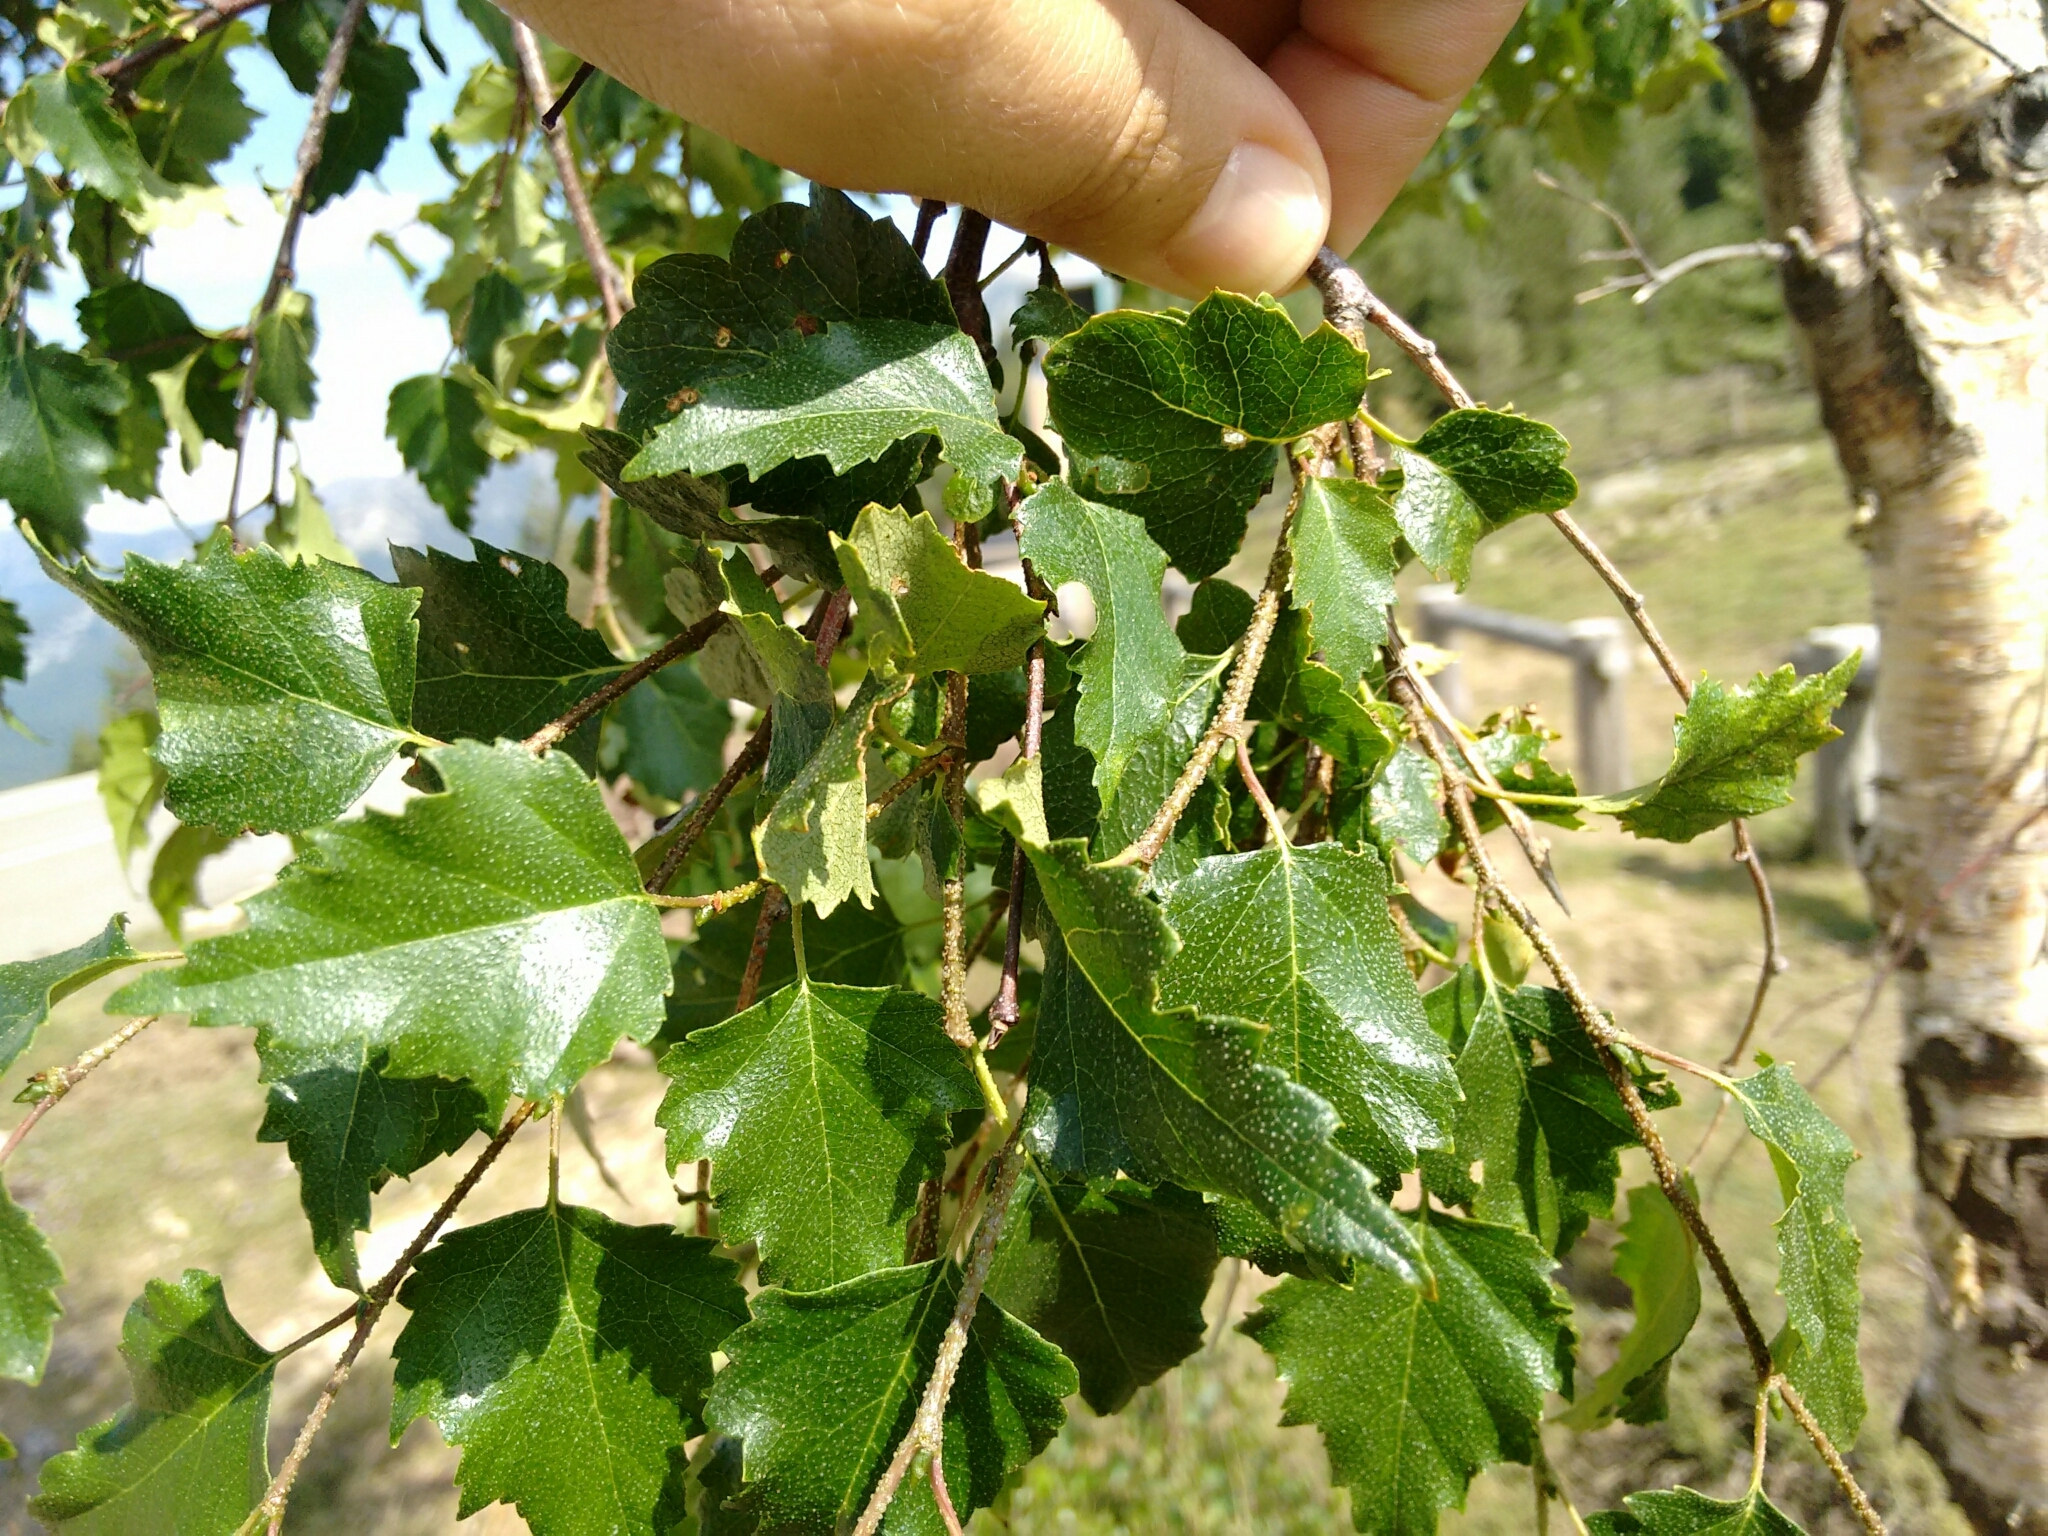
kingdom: Plantae
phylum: Tracheophyta
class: Magnoliopsida
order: Fagales
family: Betulaceae
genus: Betula
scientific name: Betula pendula
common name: Silver birch
